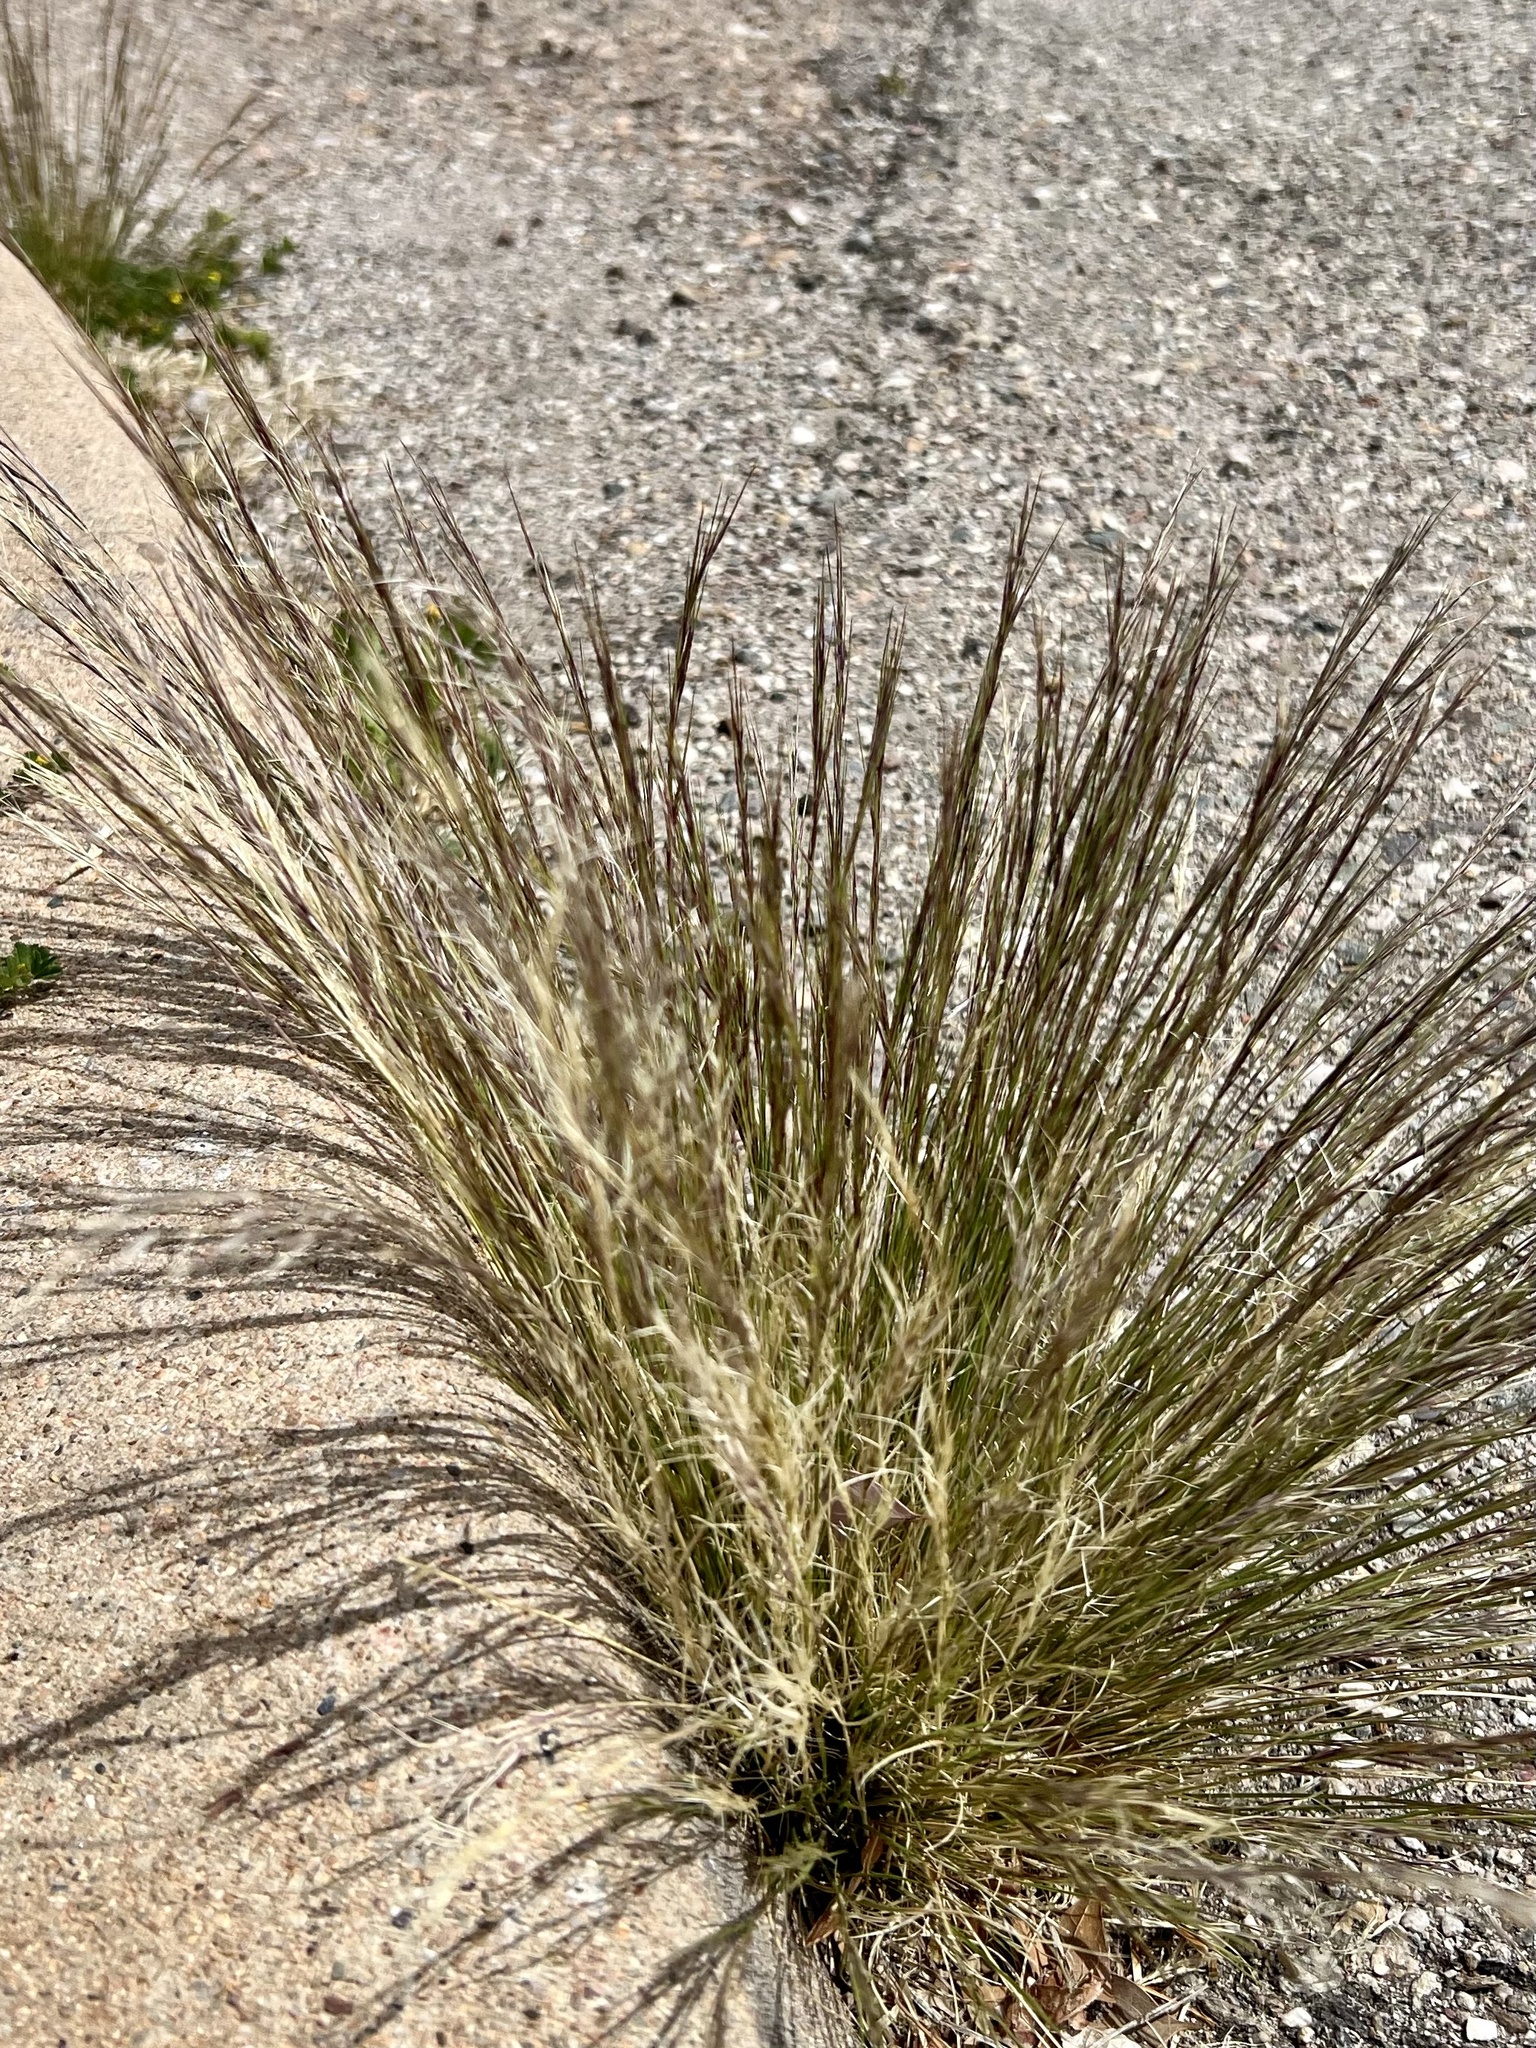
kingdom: Plantae
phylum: Tracheophyta
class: Liliopsida
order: Poales
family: Poaceae
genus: Aristida
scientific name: Aristida purpurea
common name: Purple threeawn
